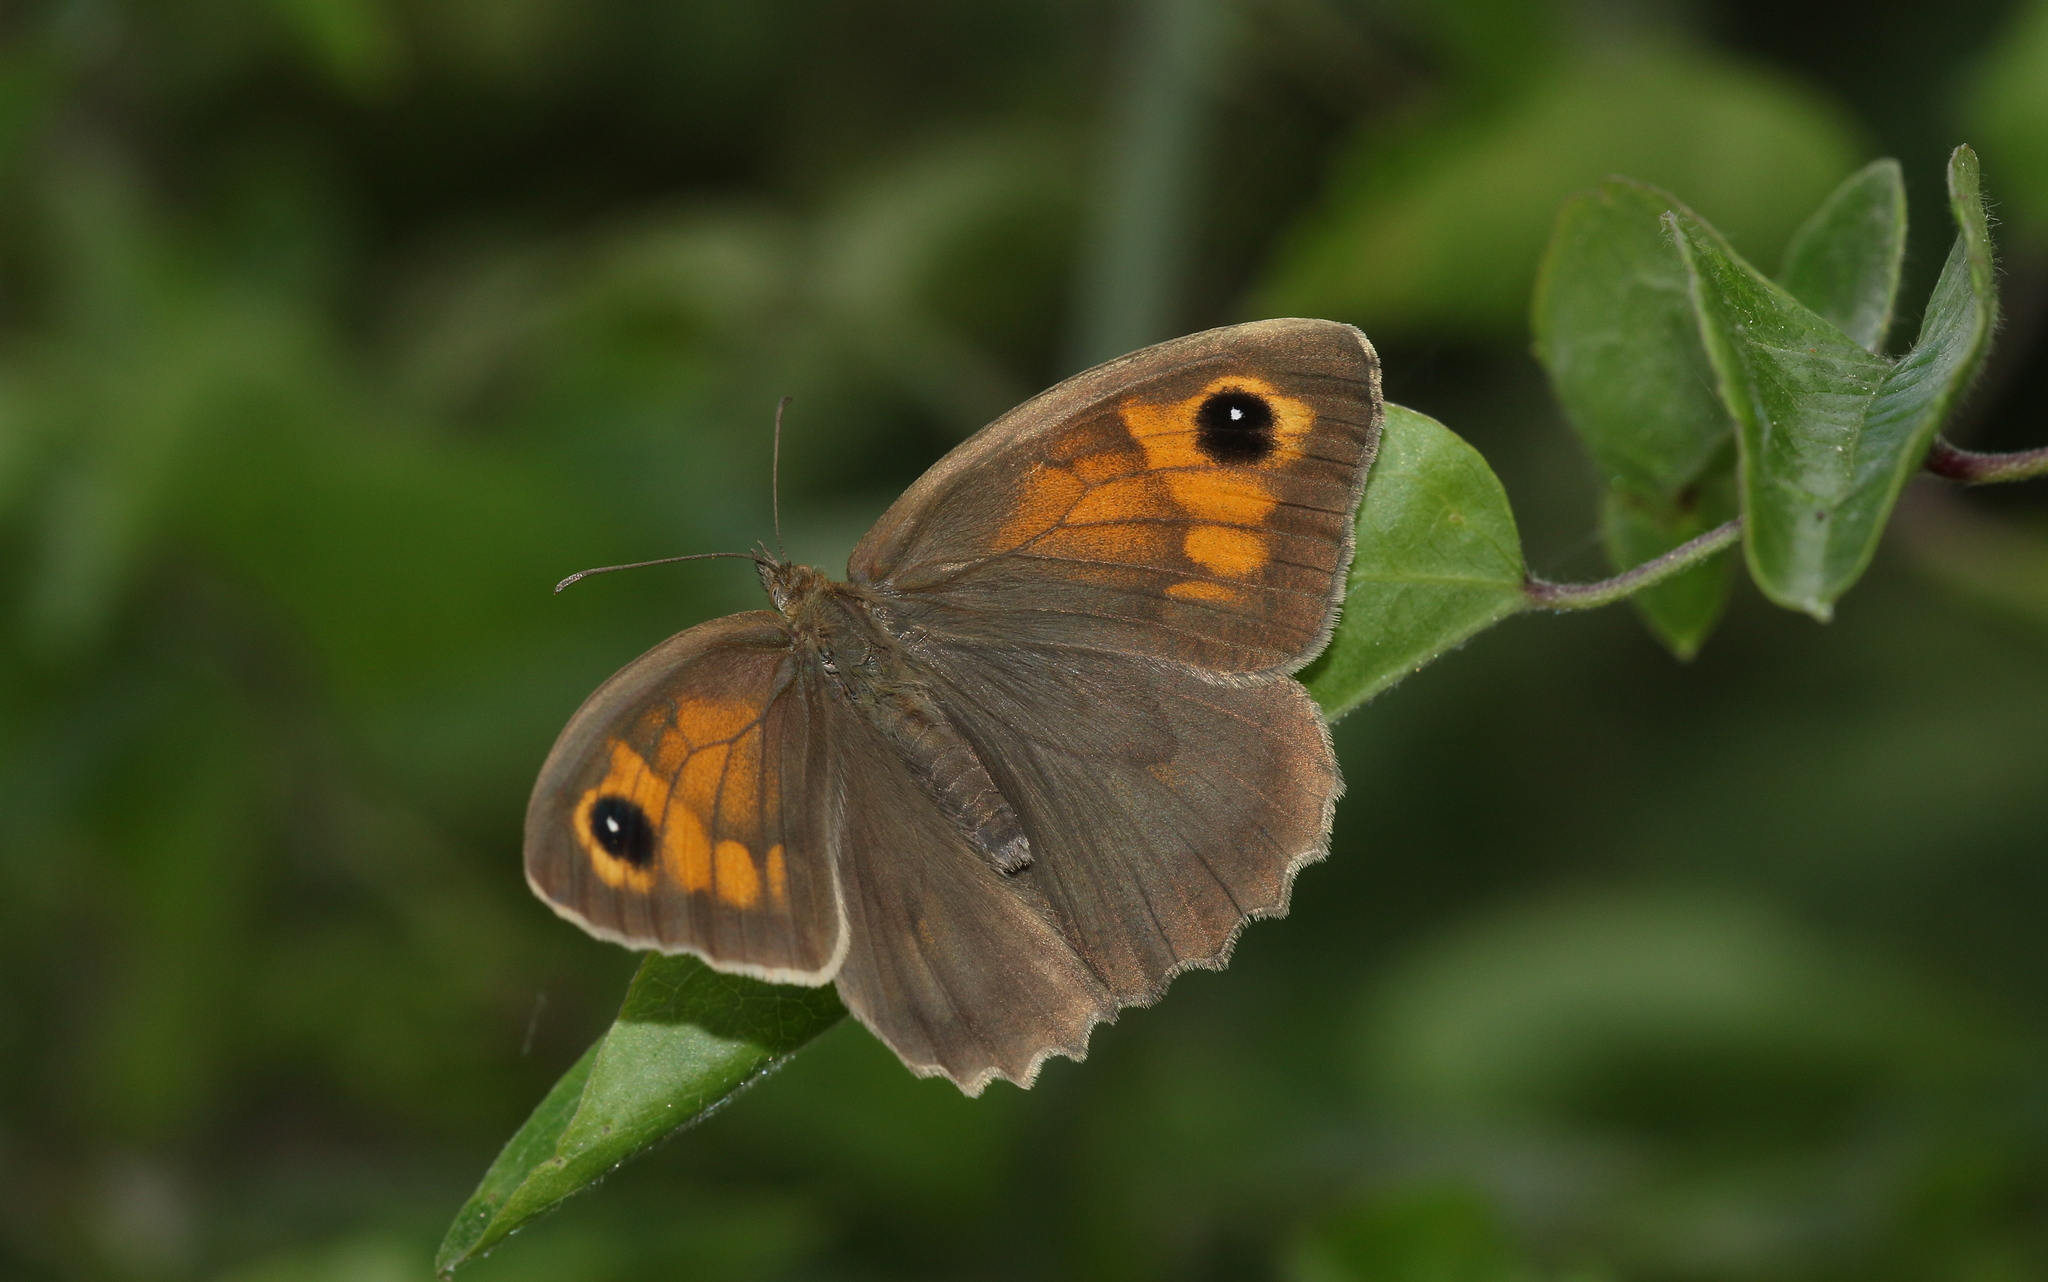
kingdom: Animalia
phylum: Arthropoda
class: Insecta
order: Lepidoptera
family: Nymphalidae
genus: Maniola
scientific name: Maniola jurtina
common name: Meadow brown
